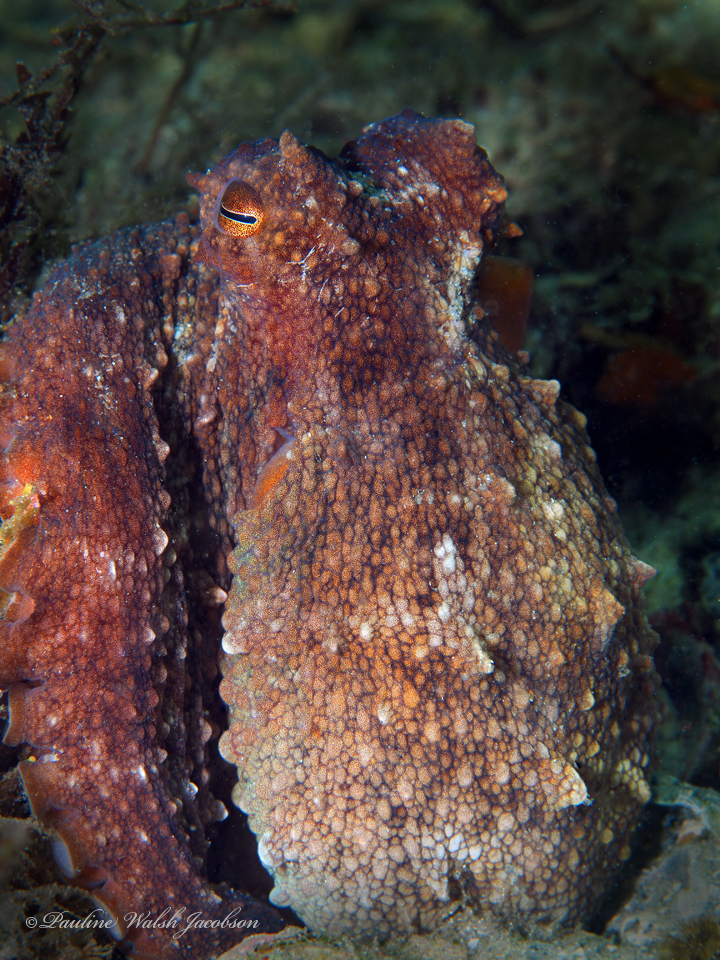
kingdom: Animalia
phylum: Mollusca
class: Cephalopoda
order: Octopoda
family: Octopodidae
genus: Octopus
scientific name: Octopus americanus
